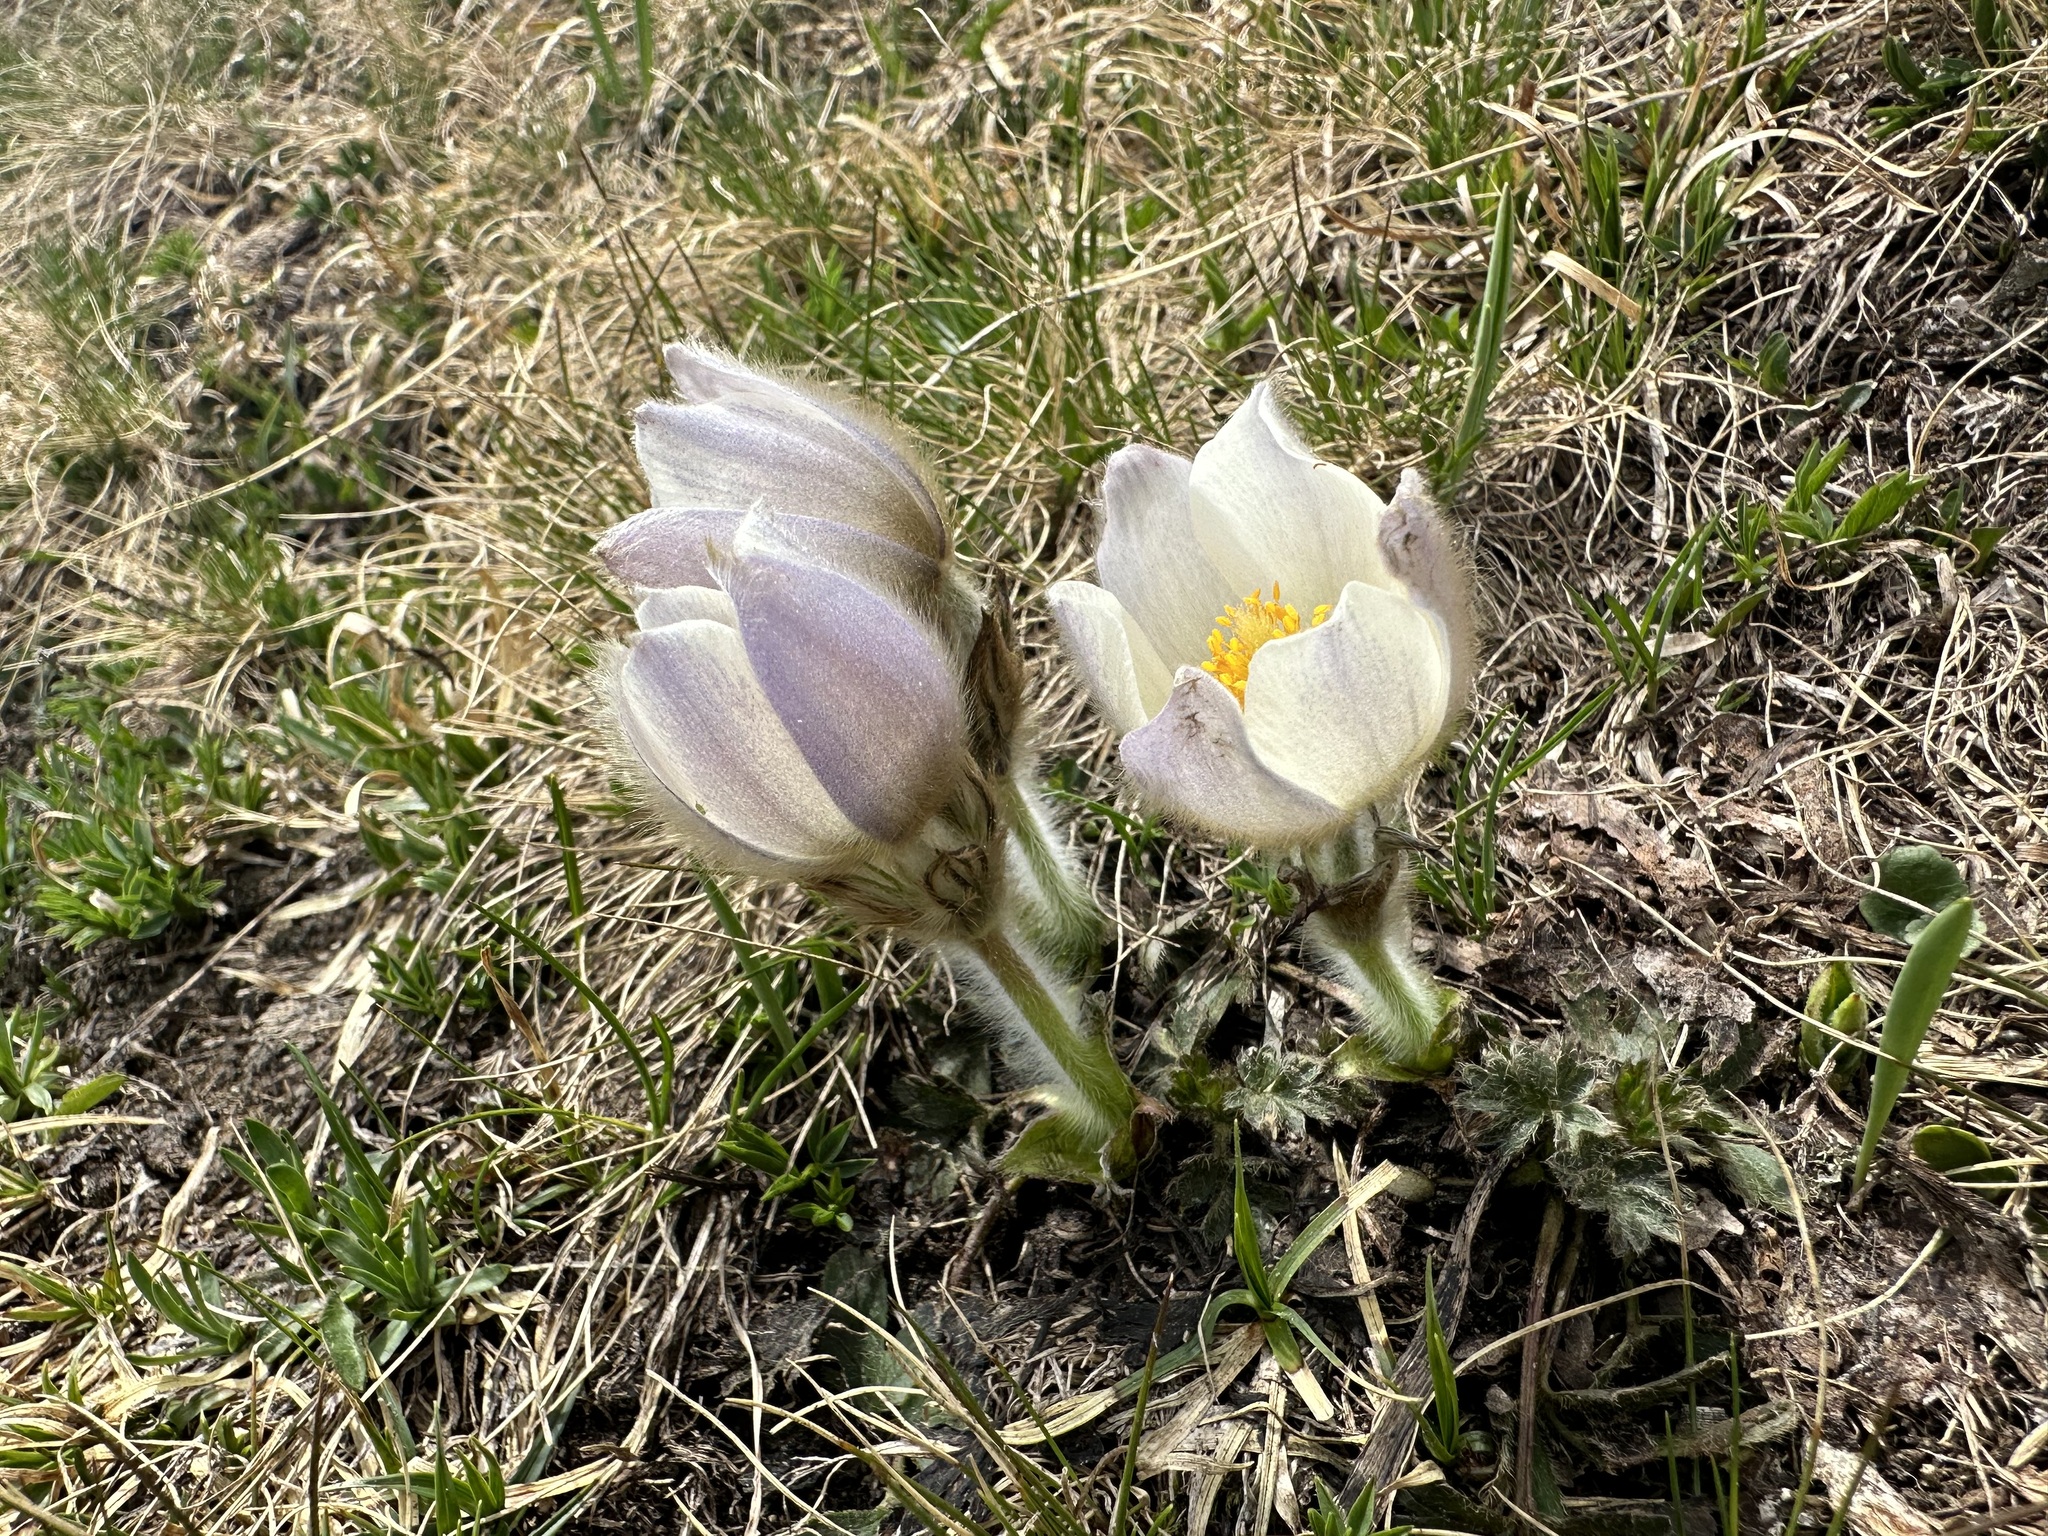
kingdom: Plantae
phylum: Tracheophyta
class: Magnoliopsida
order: Ranunculales
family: Ranunculaceae
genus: Pulsatilla
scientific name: Pulsatilla vernalis
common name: Spring pasque flower
